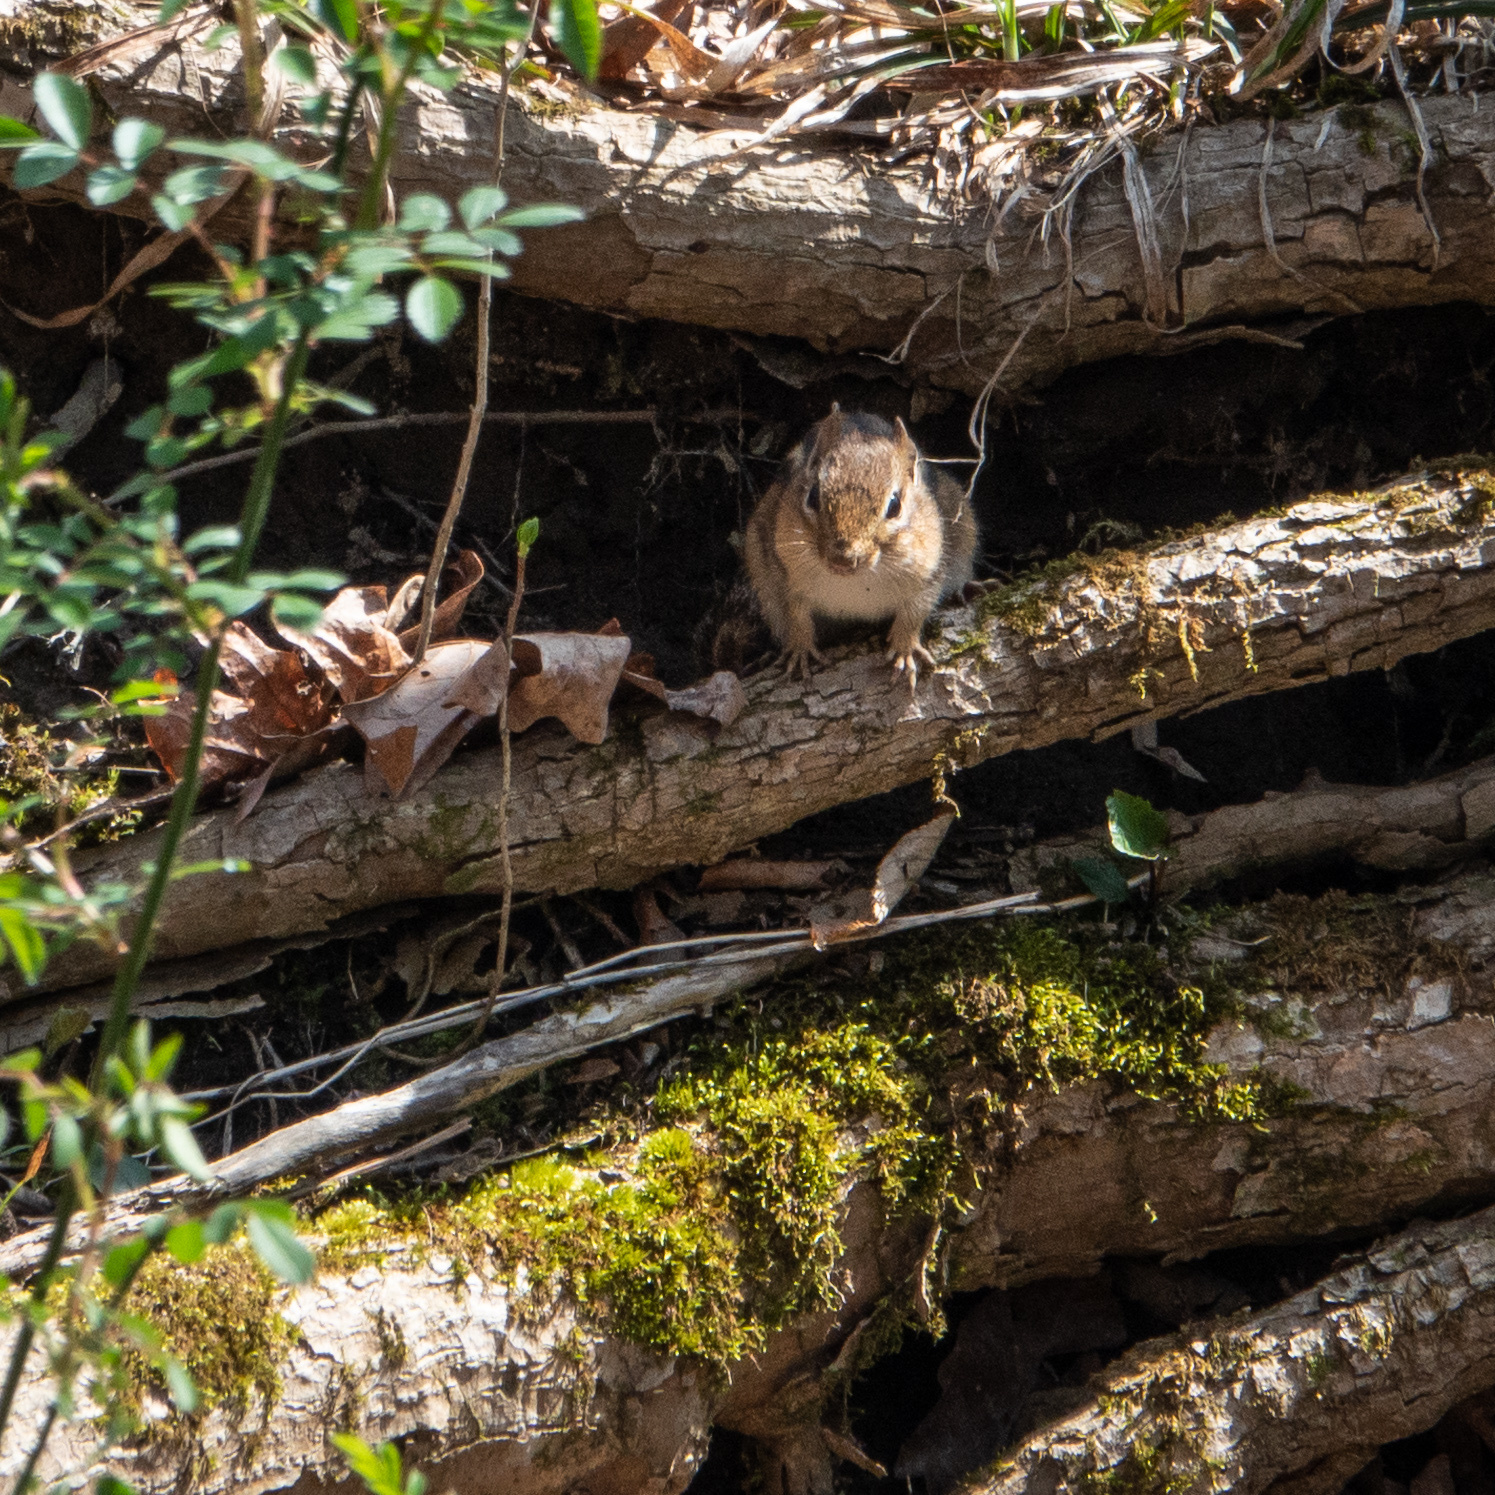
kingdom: Animalia
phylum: Chordata
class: Mammalia
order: Rodentia
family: Sciuridae
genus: Tamias
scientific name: Tamias striatus
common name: Eastern chipmunk
